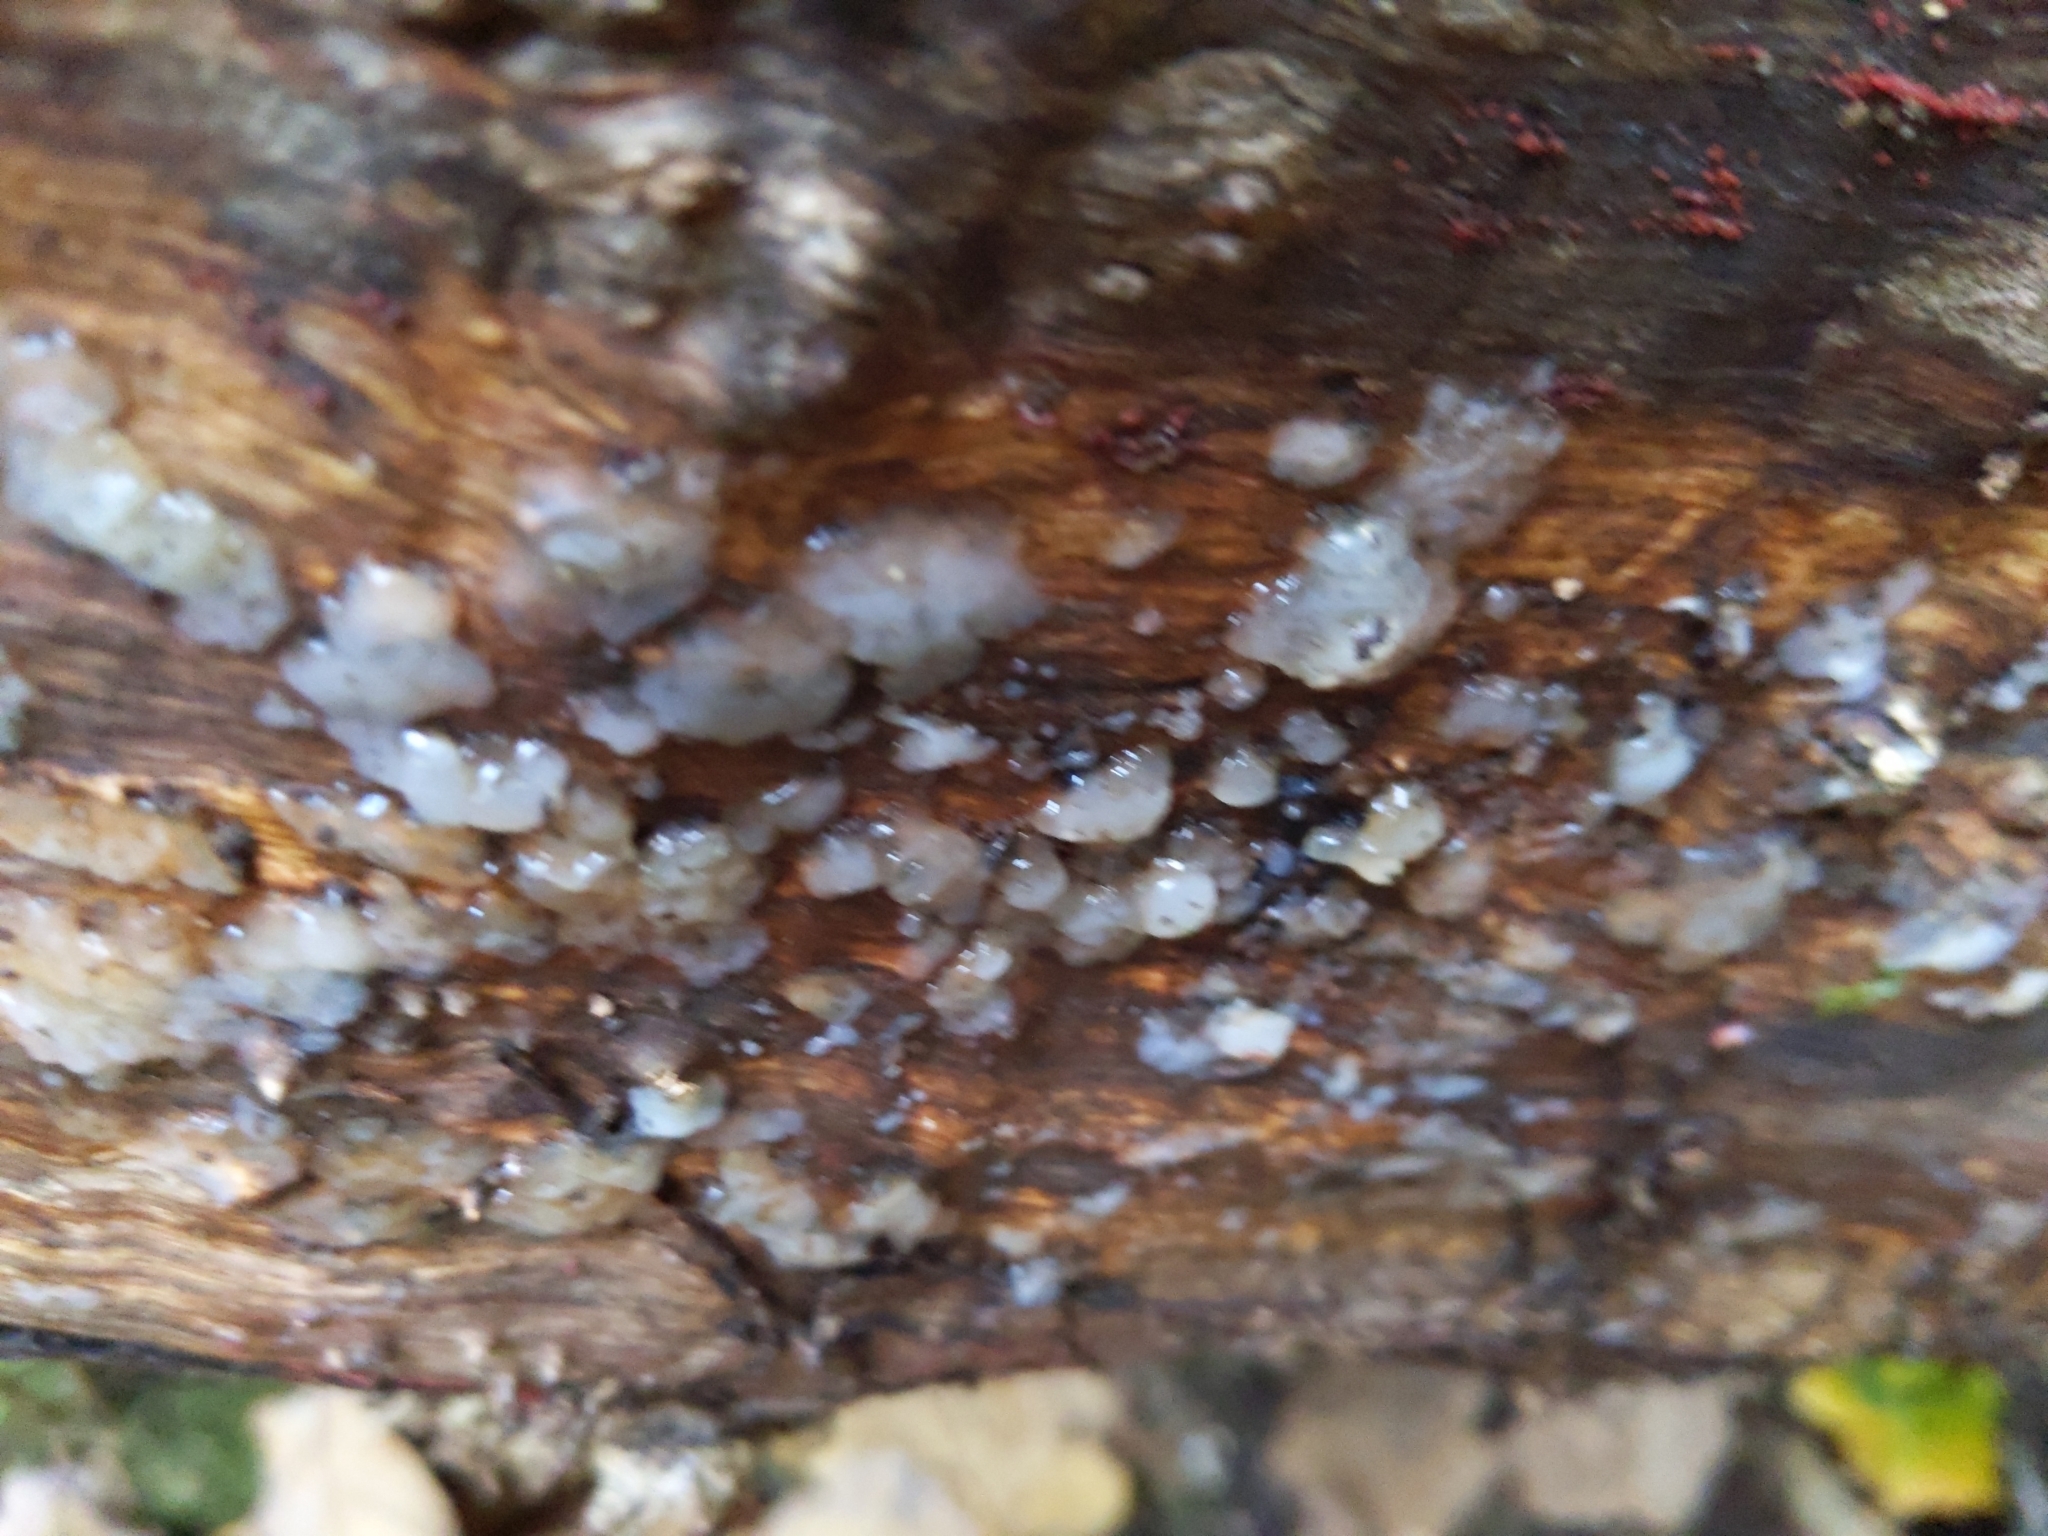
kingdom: Fungi
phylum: Basidiomycota
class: Agaricomycetes
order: Auriculariales
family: Hyaloriaceae
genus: Myxarium
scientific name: Myxarium nucleatum
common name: Crystal brain fungus
